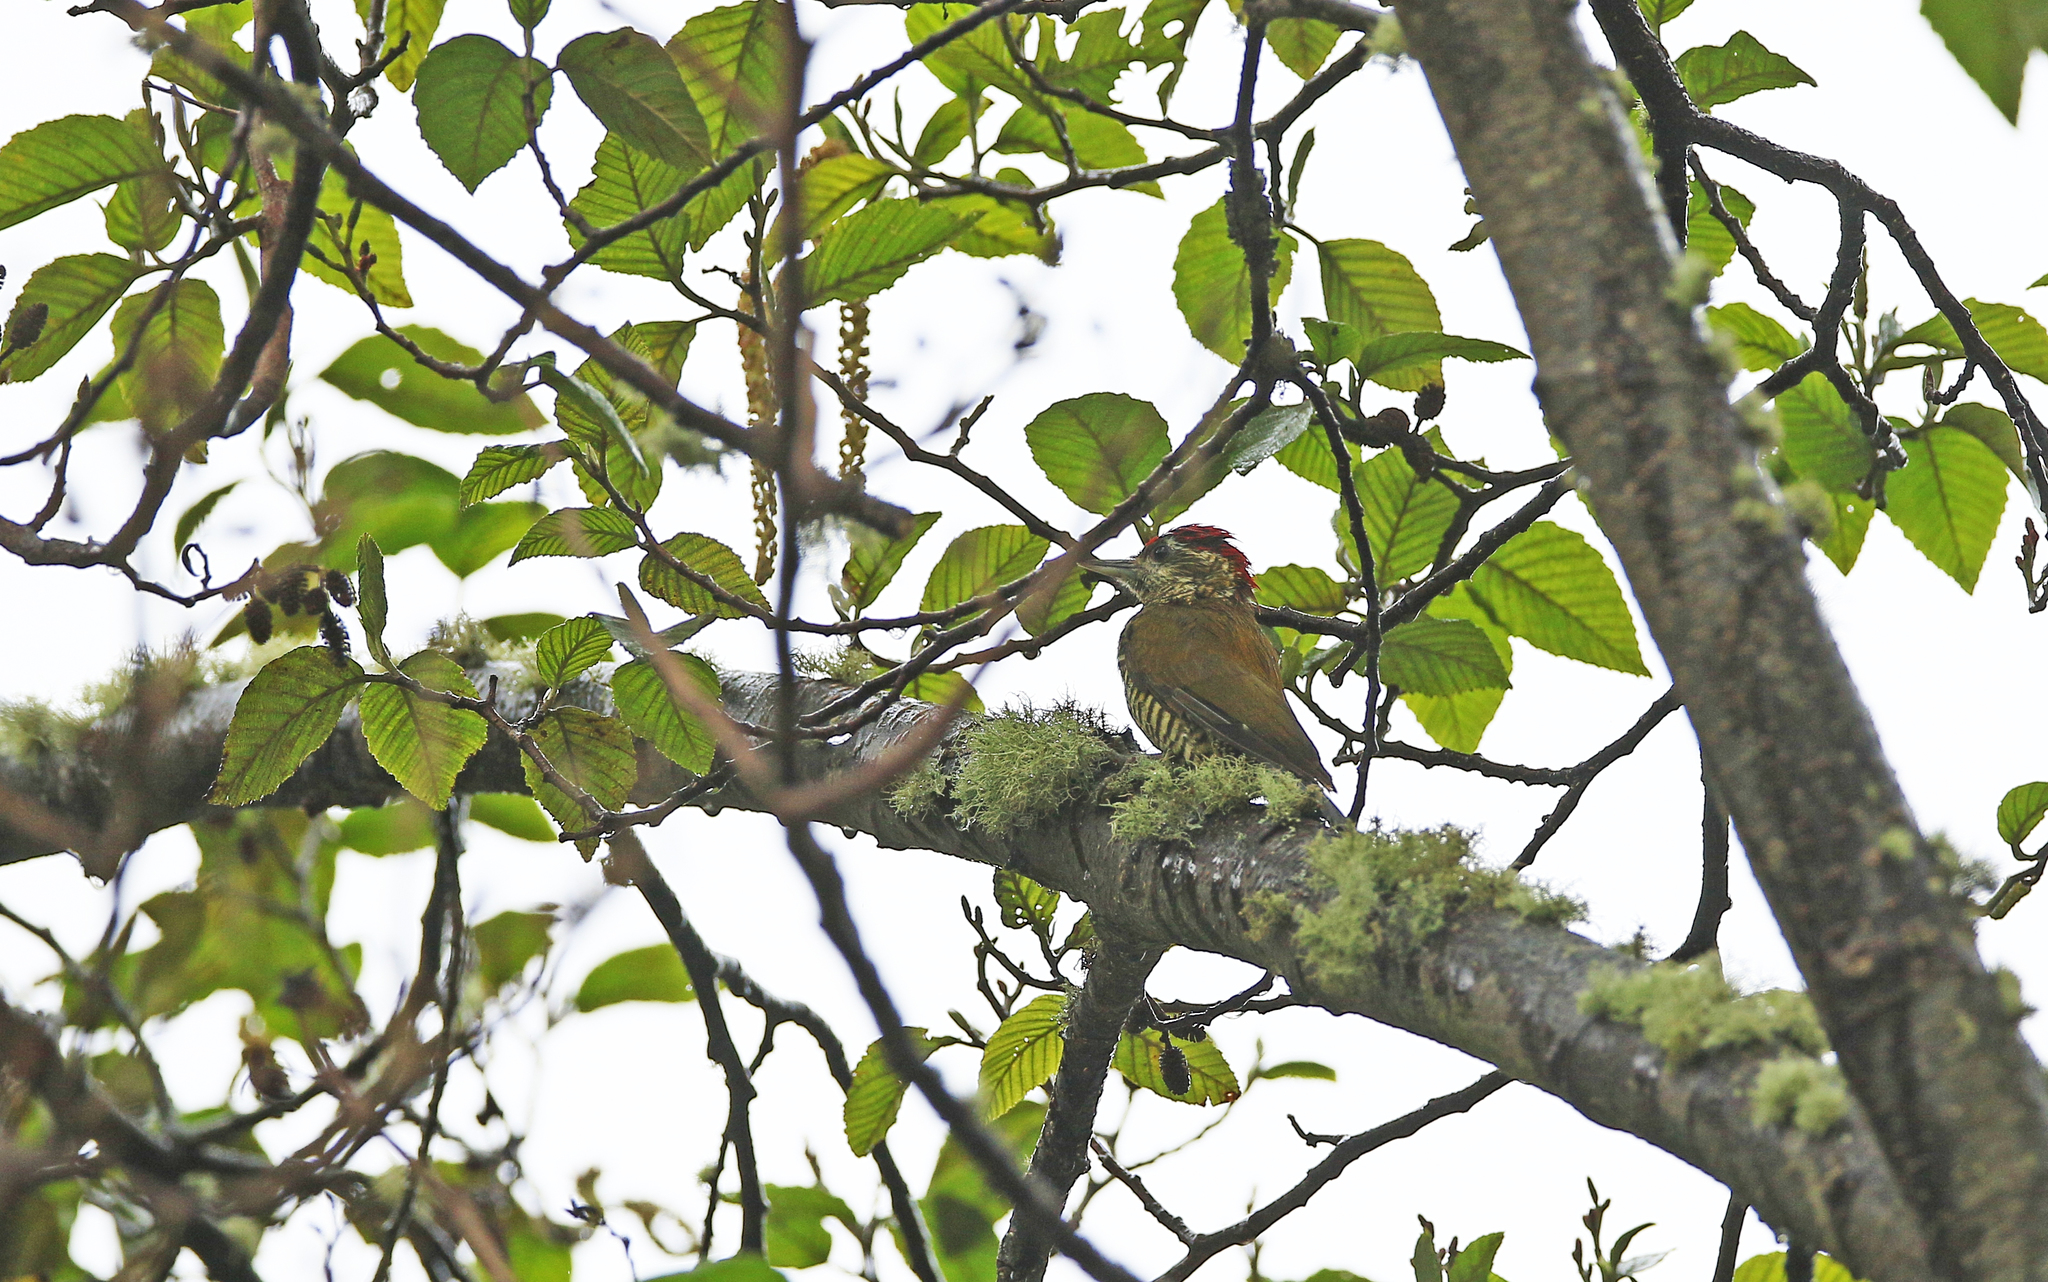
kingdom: Animalia
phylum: Chordata
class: Aves
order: Piciformes
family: Picidae
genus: Veniliornis
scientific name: Veniliornis nigriceps
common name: Bar-bellied woodpecker
